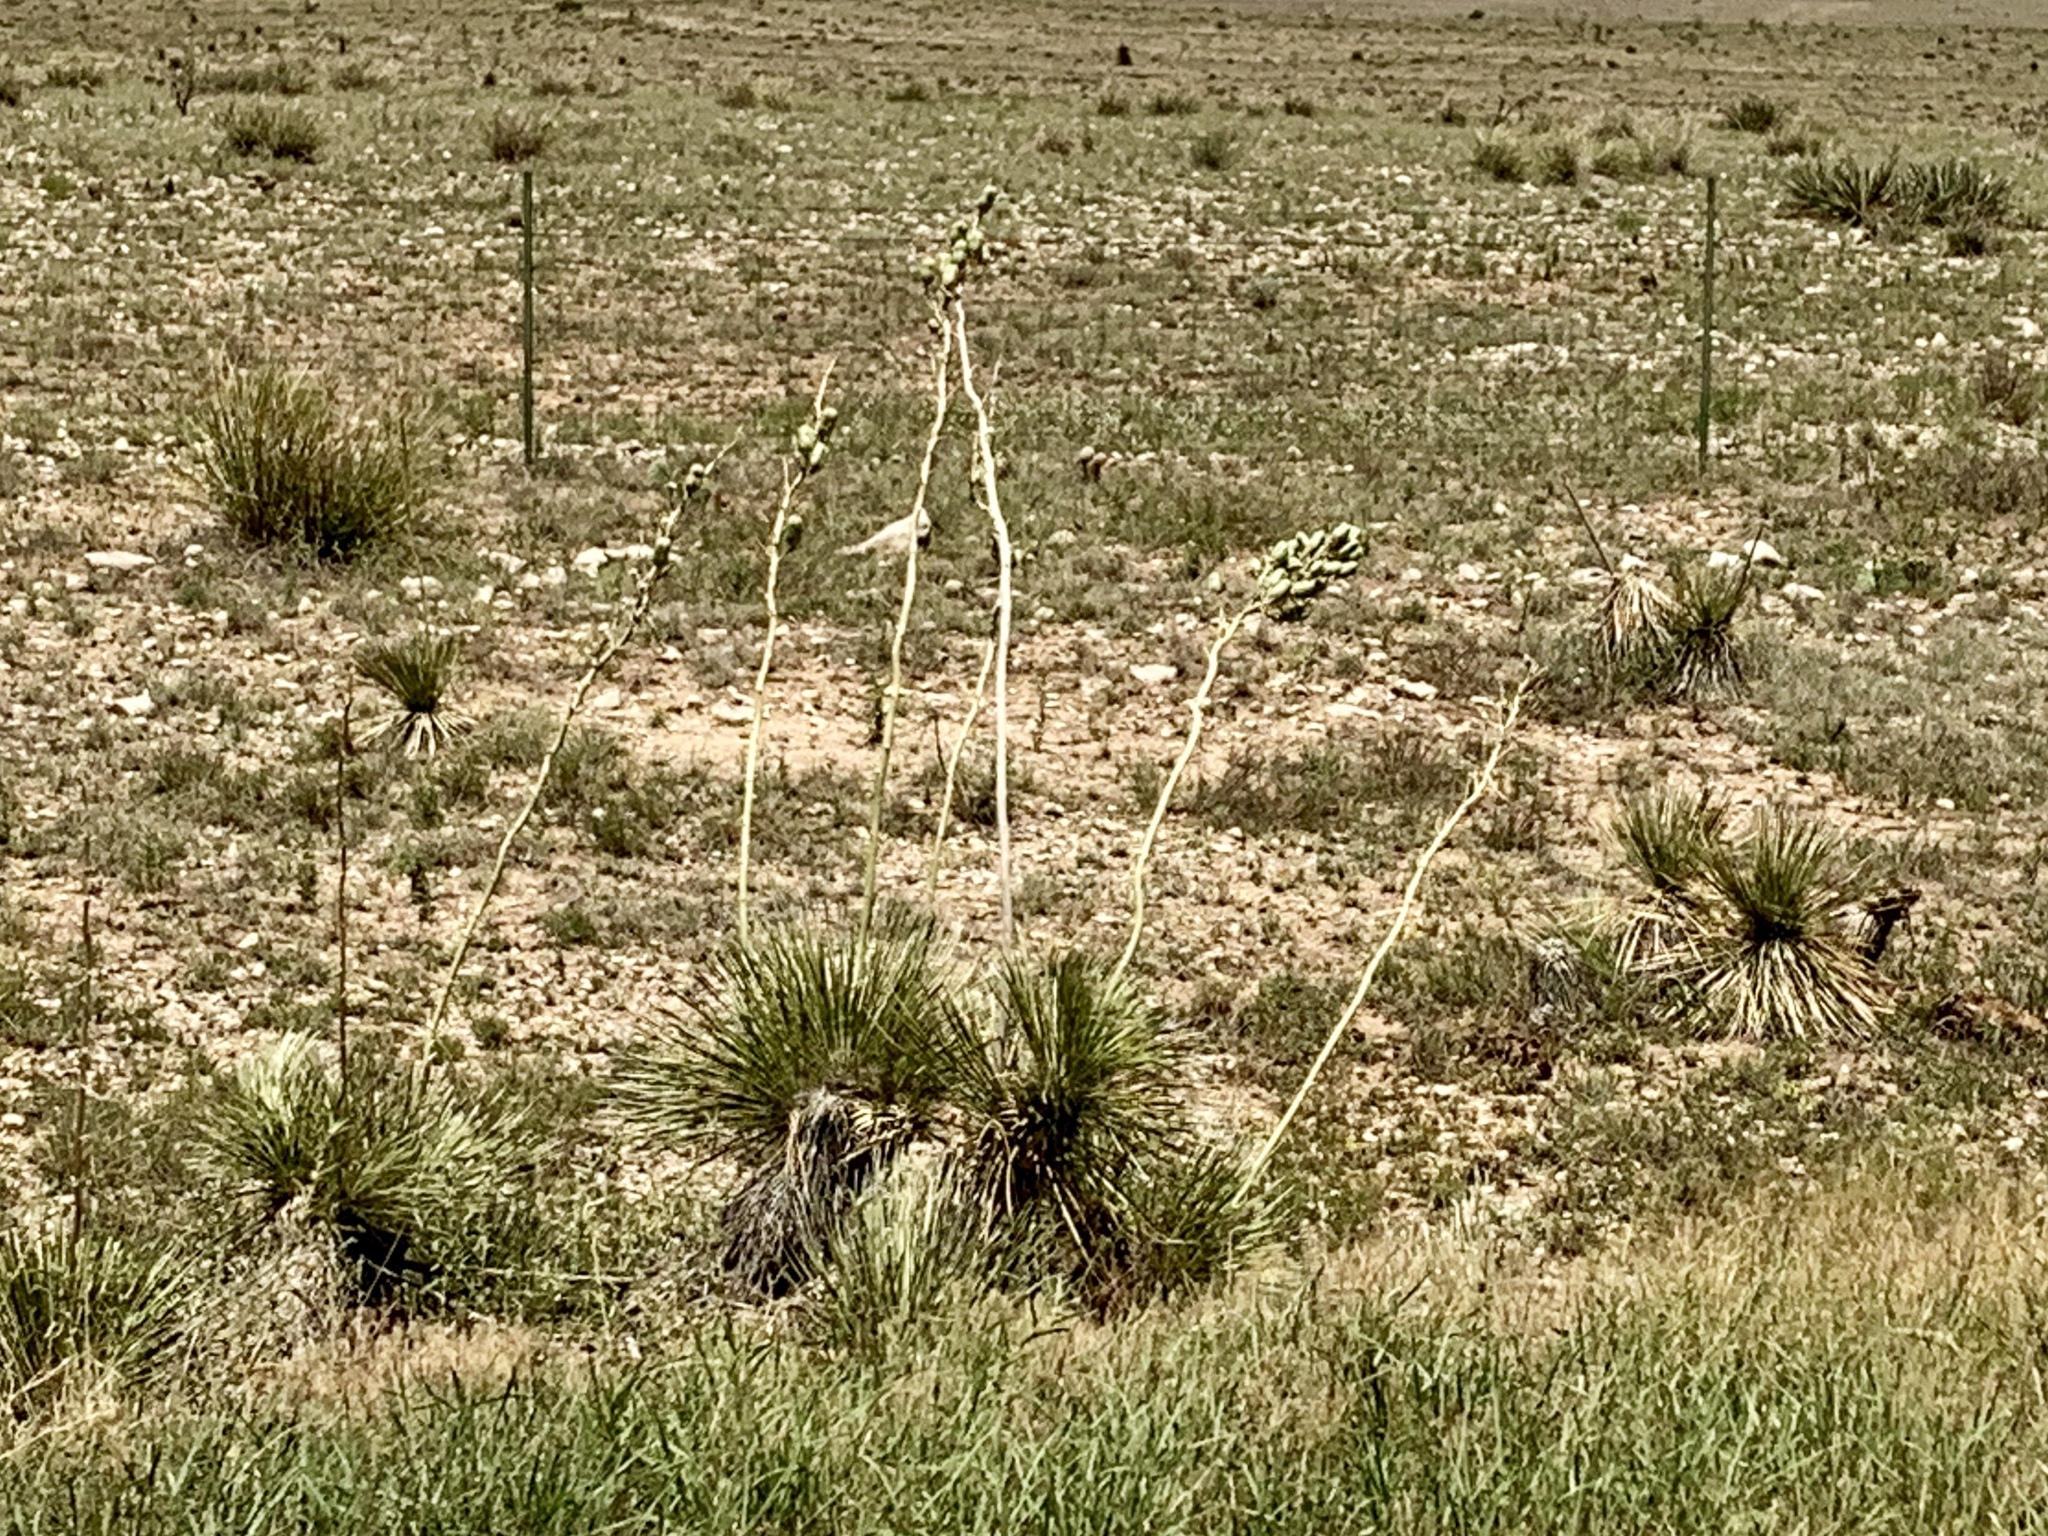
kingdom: Plantae
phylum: Tracheophyta
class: Liliopsida
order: Asparagales
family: Asparagaceae
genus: Yucca
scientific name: Yucca elata
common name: Palmella
